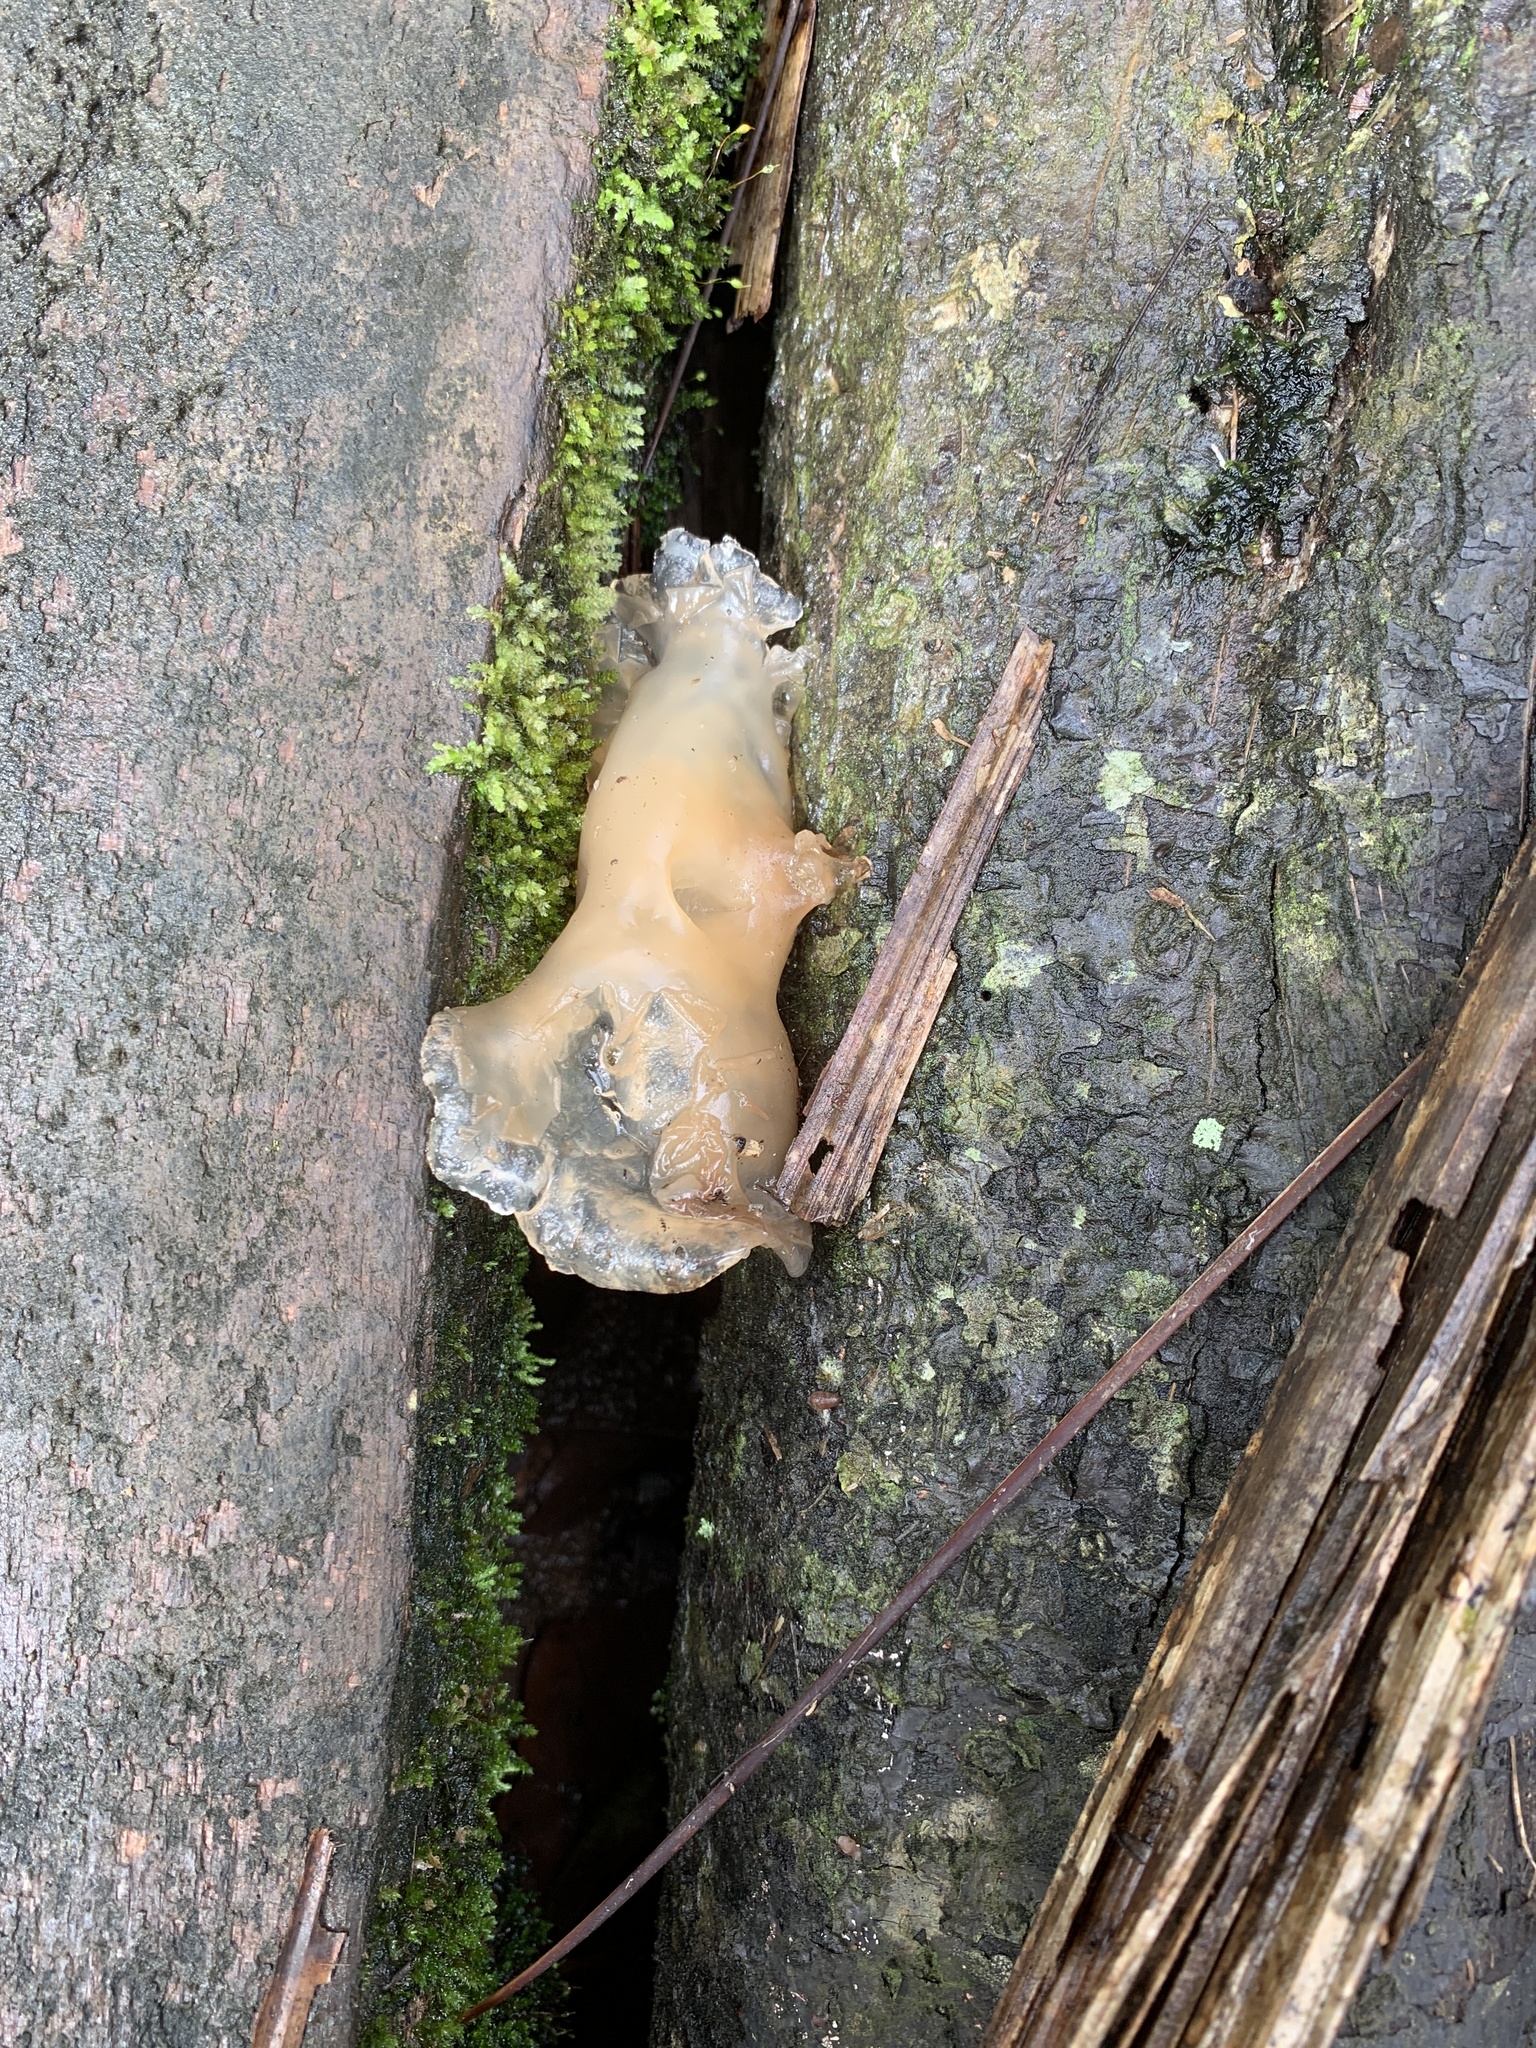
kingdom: Fungi
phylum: Basidiomycota
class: Agaricomycetes
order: Auriculariales
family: Auriculariaceae
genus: Auricularia
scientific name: Auricularia delicata
